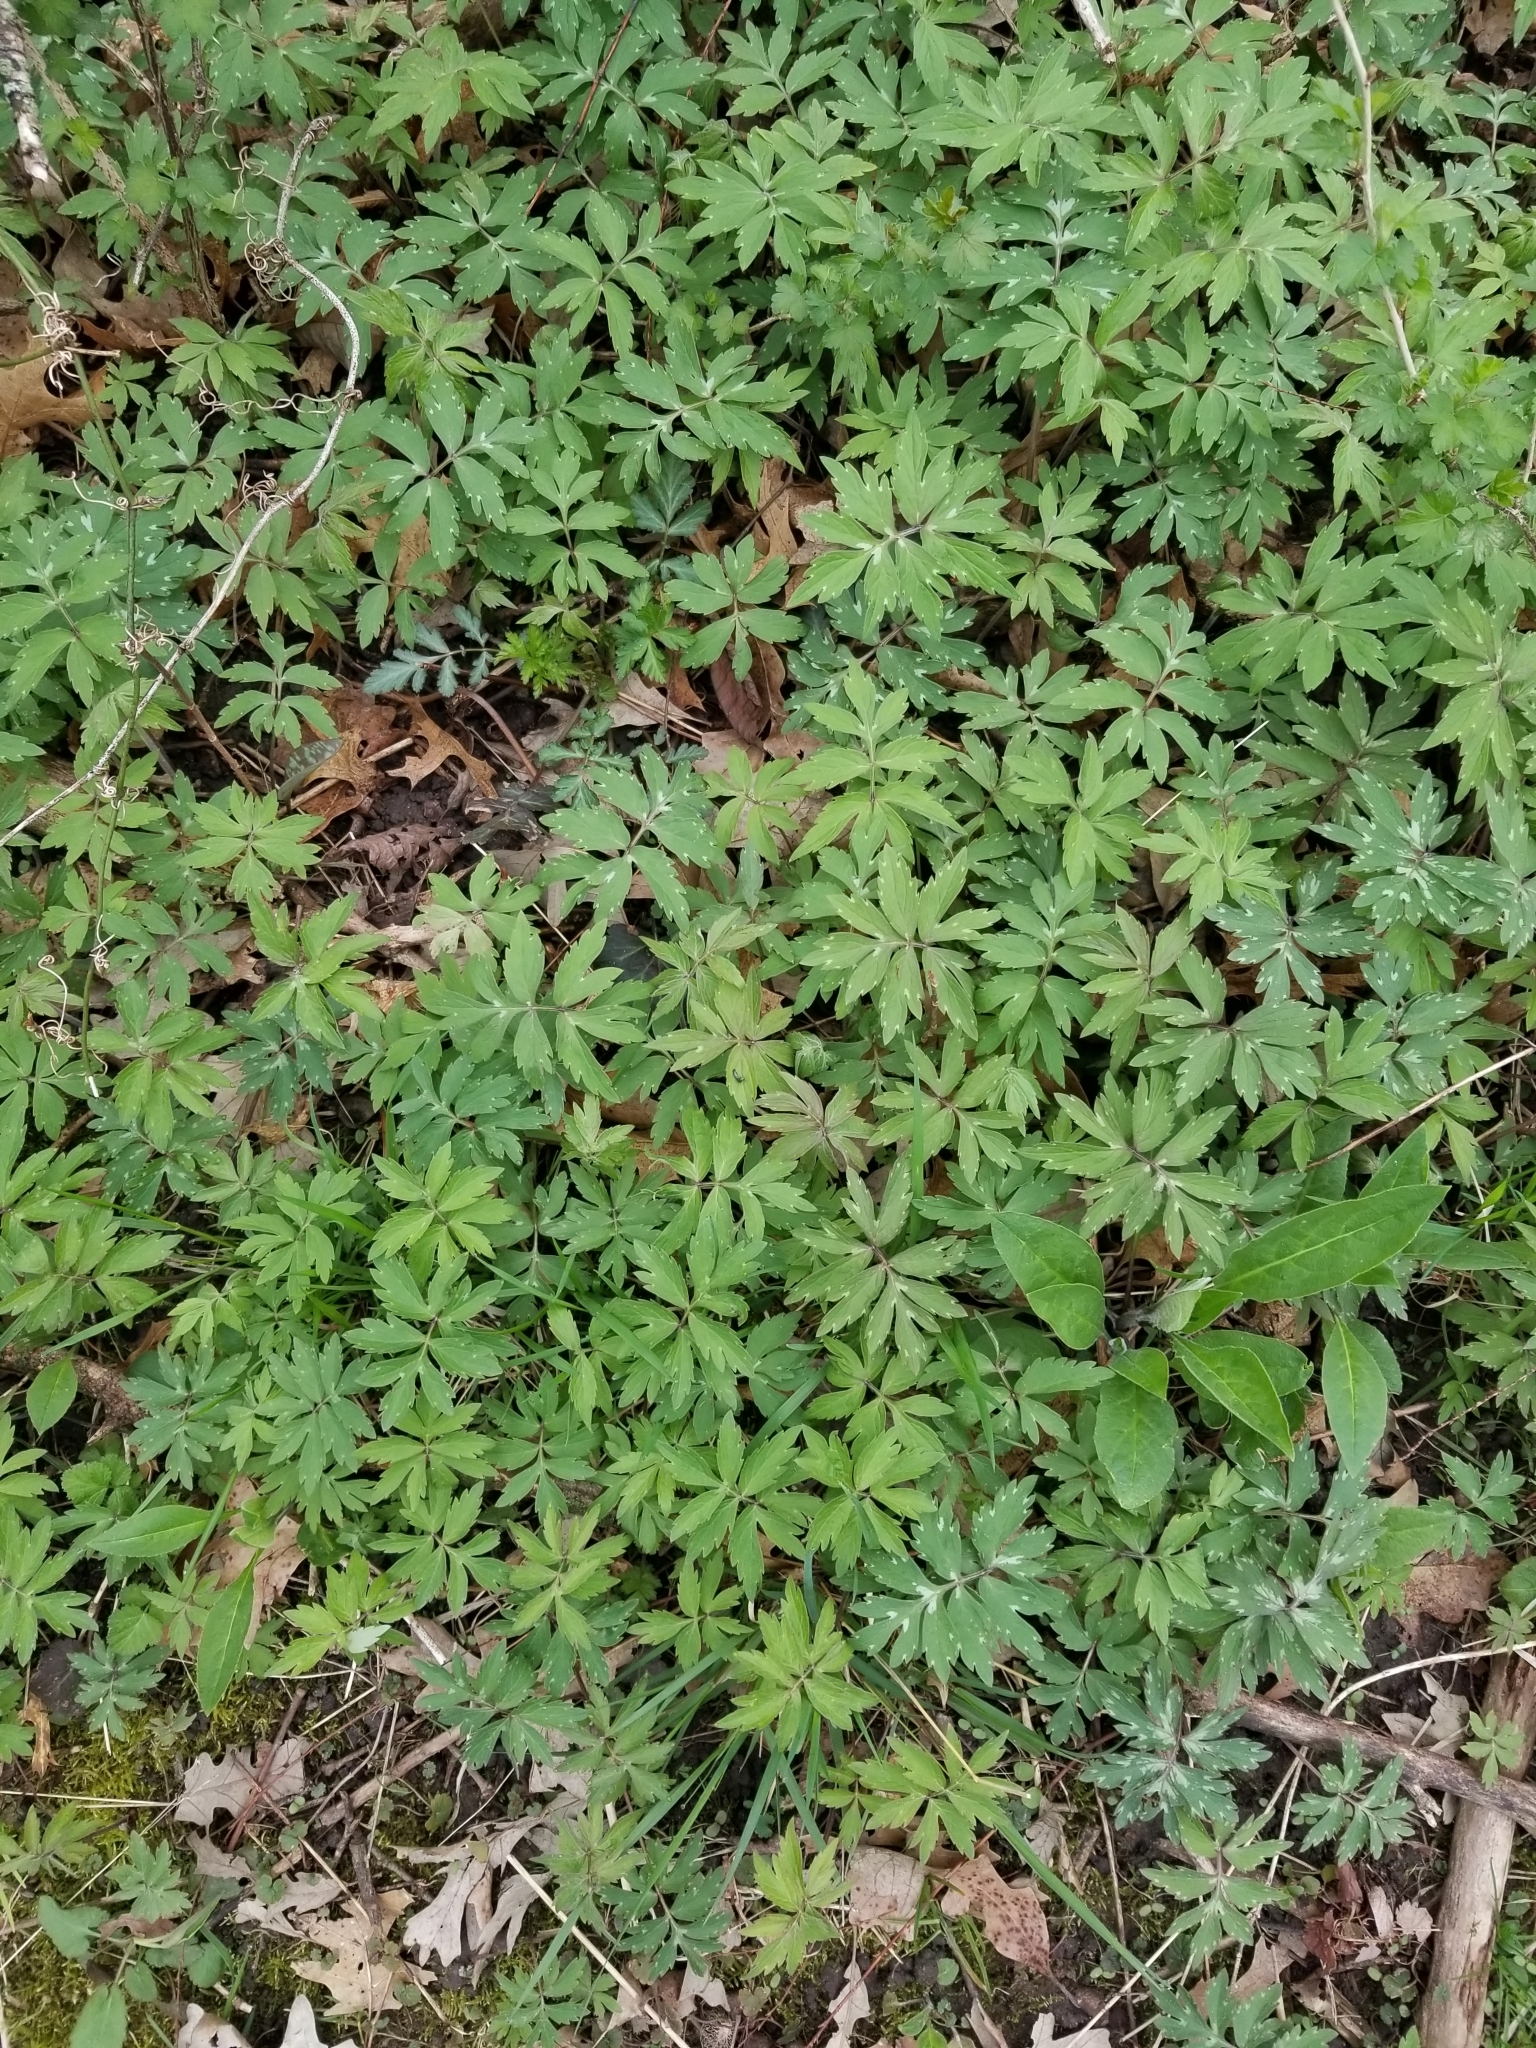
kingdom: Plantae
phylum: Tracheophyta
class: Magnoliopsida
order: Boraginales
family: Hydrophyllaceae
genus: Hydrophyllum
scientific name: Hydrophyllum virginianum
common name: Virginia waterleaf
